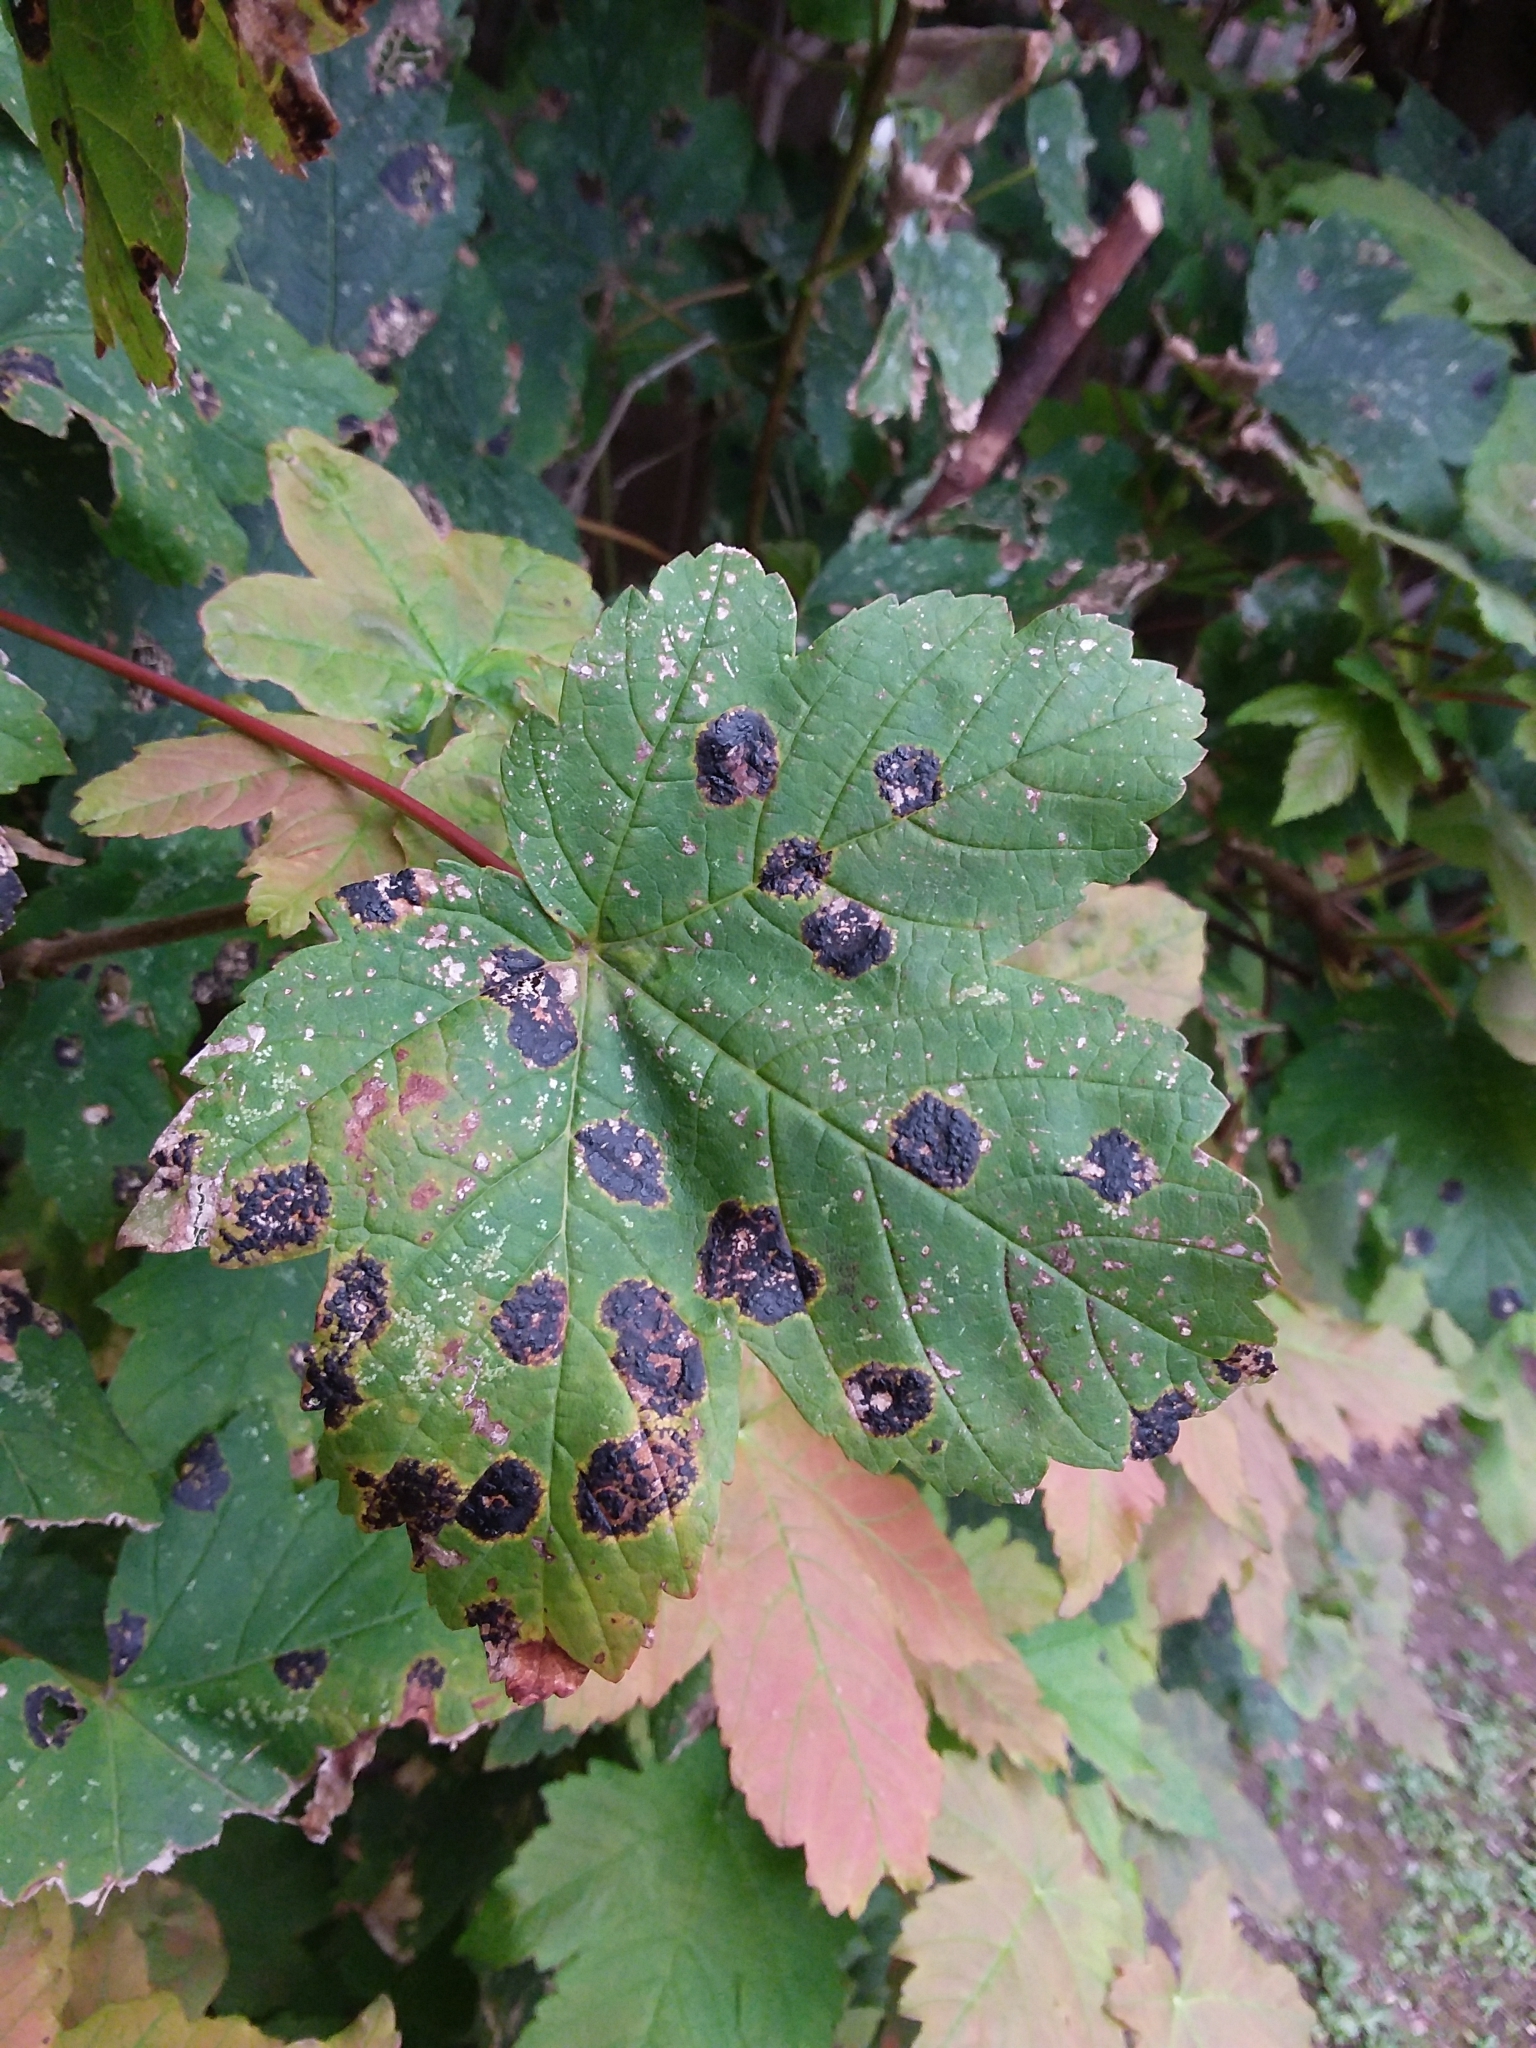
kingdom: Fungi
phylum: Ascomycota
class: Leotiomycetes
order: Rhytismatales
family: Rhytismataceae
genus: Rhytisma
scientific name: Rhytisma acerinum
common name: European tar spot
